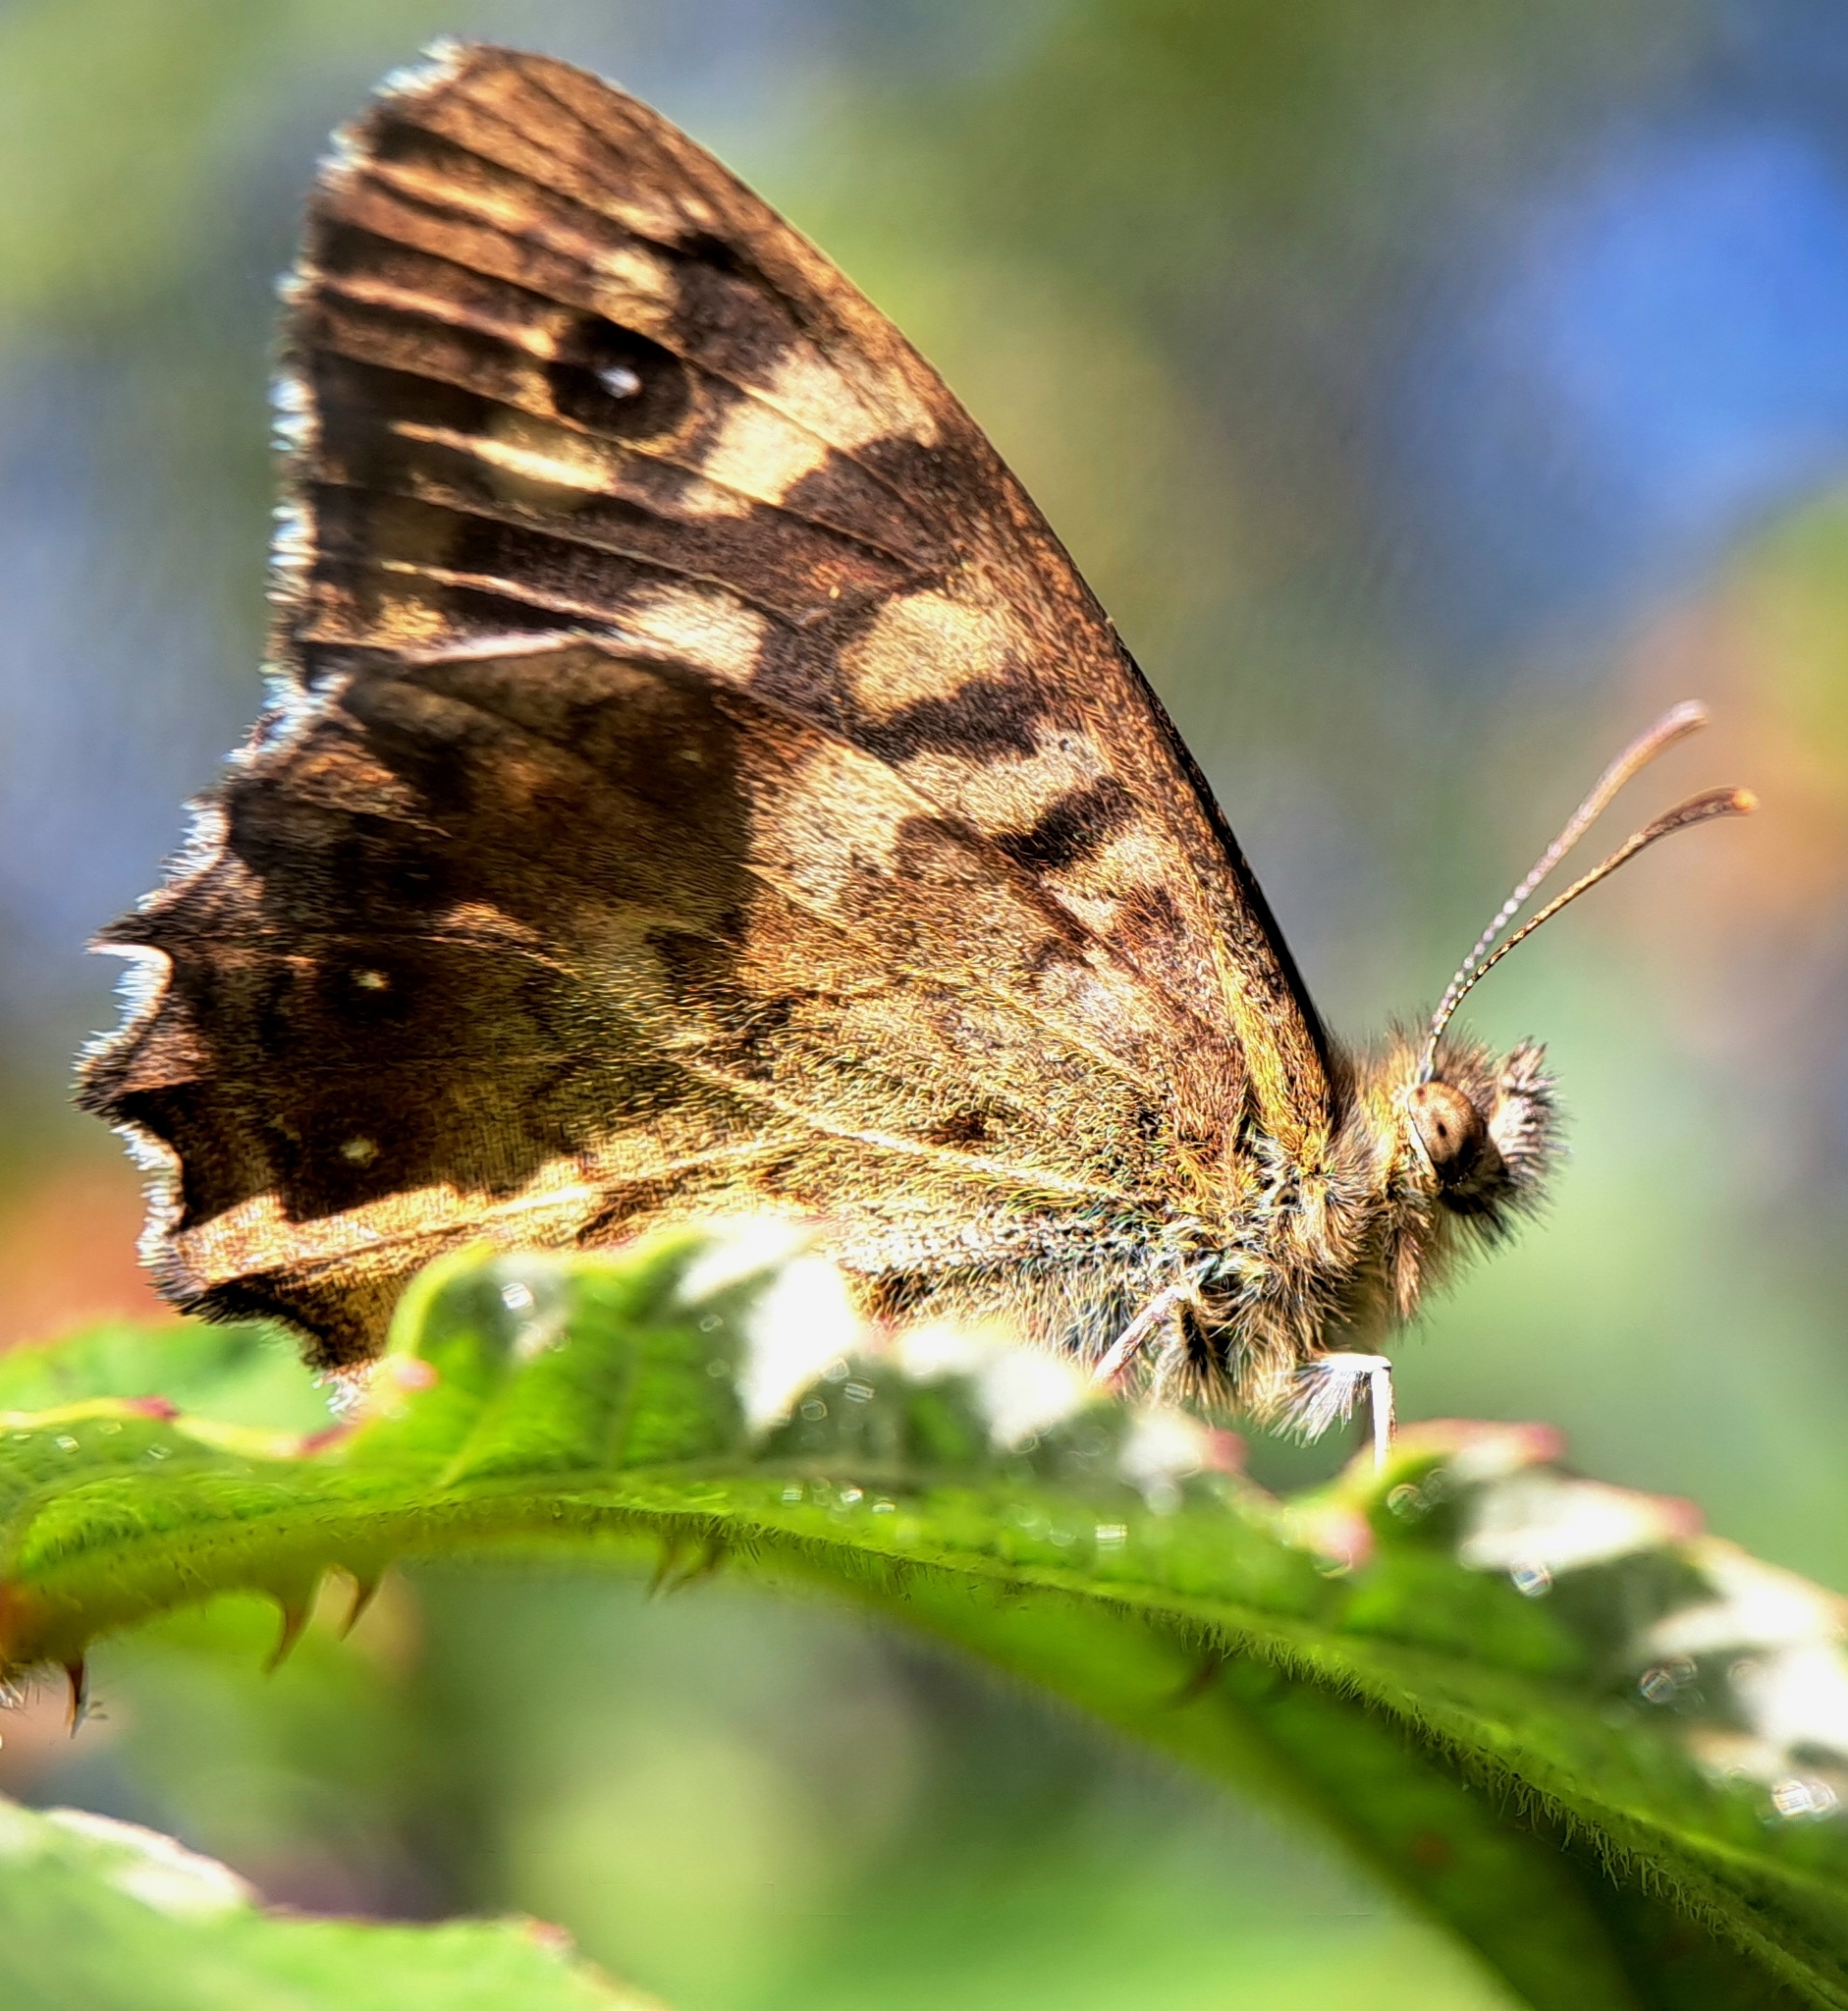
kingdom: Animalia
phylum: Arthropoda
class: Insecta
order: Lepidoptera
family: Nymphalidae
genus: Pararge
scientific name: Pararge aegeria
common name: Speckled wood
